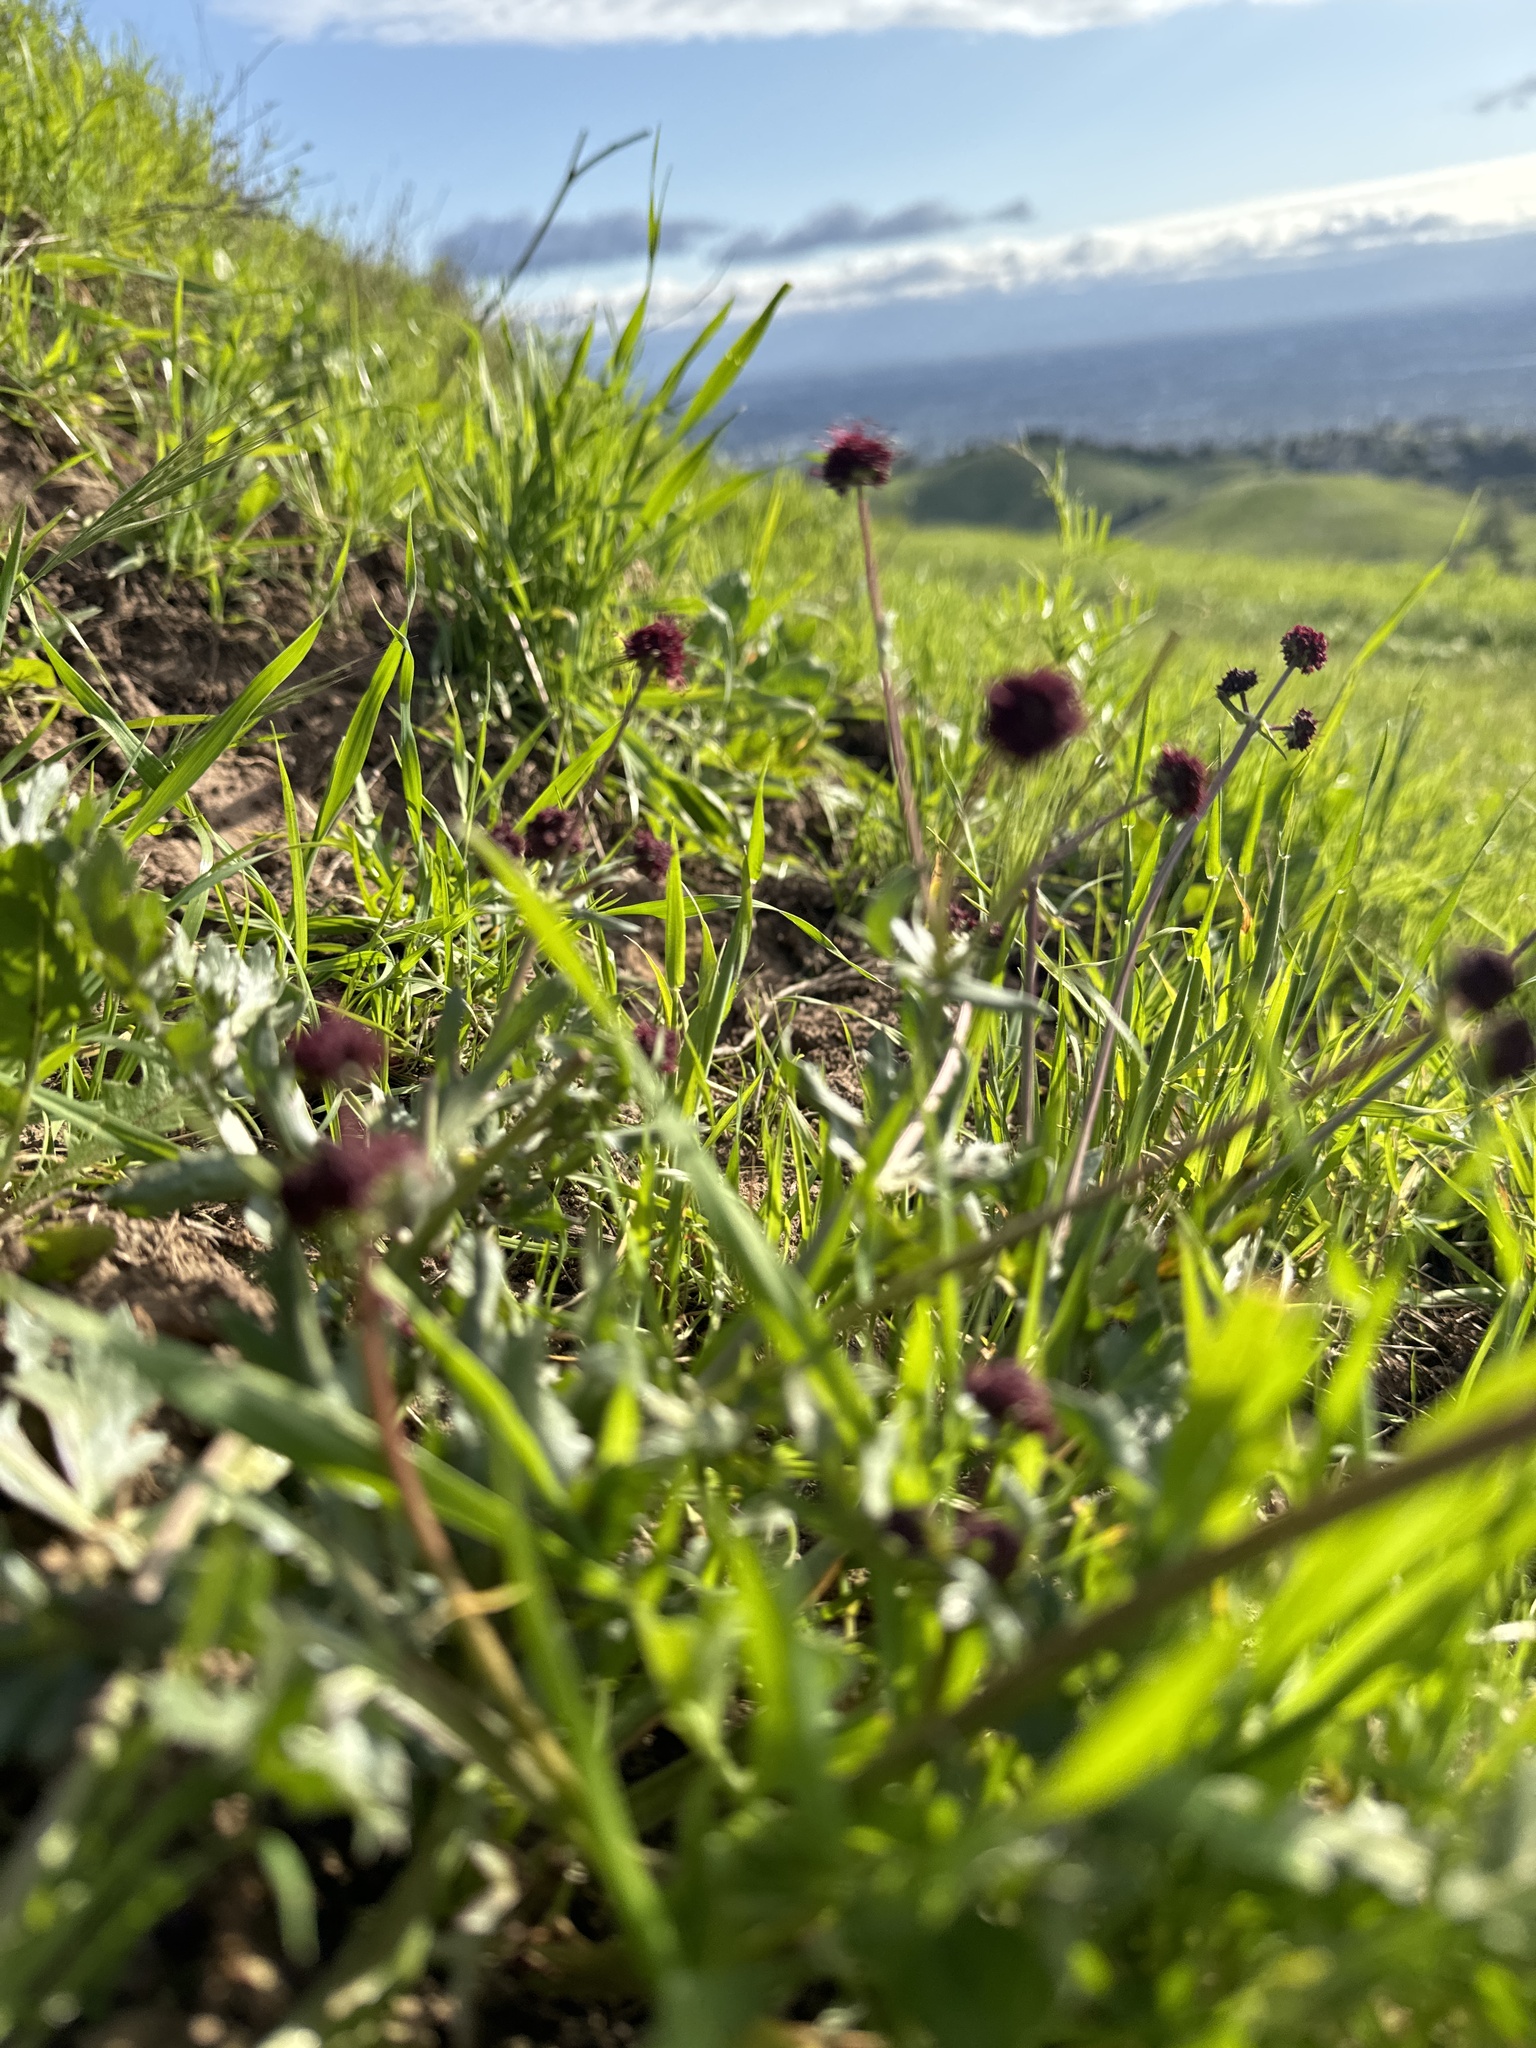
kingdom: Plantae
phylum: Tracheophyta
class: Magnoliopsida
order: Apiales
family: Apiaceae
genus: Sanicula
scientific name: Sanicula bipinnatifida
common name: Shoe-buttons
